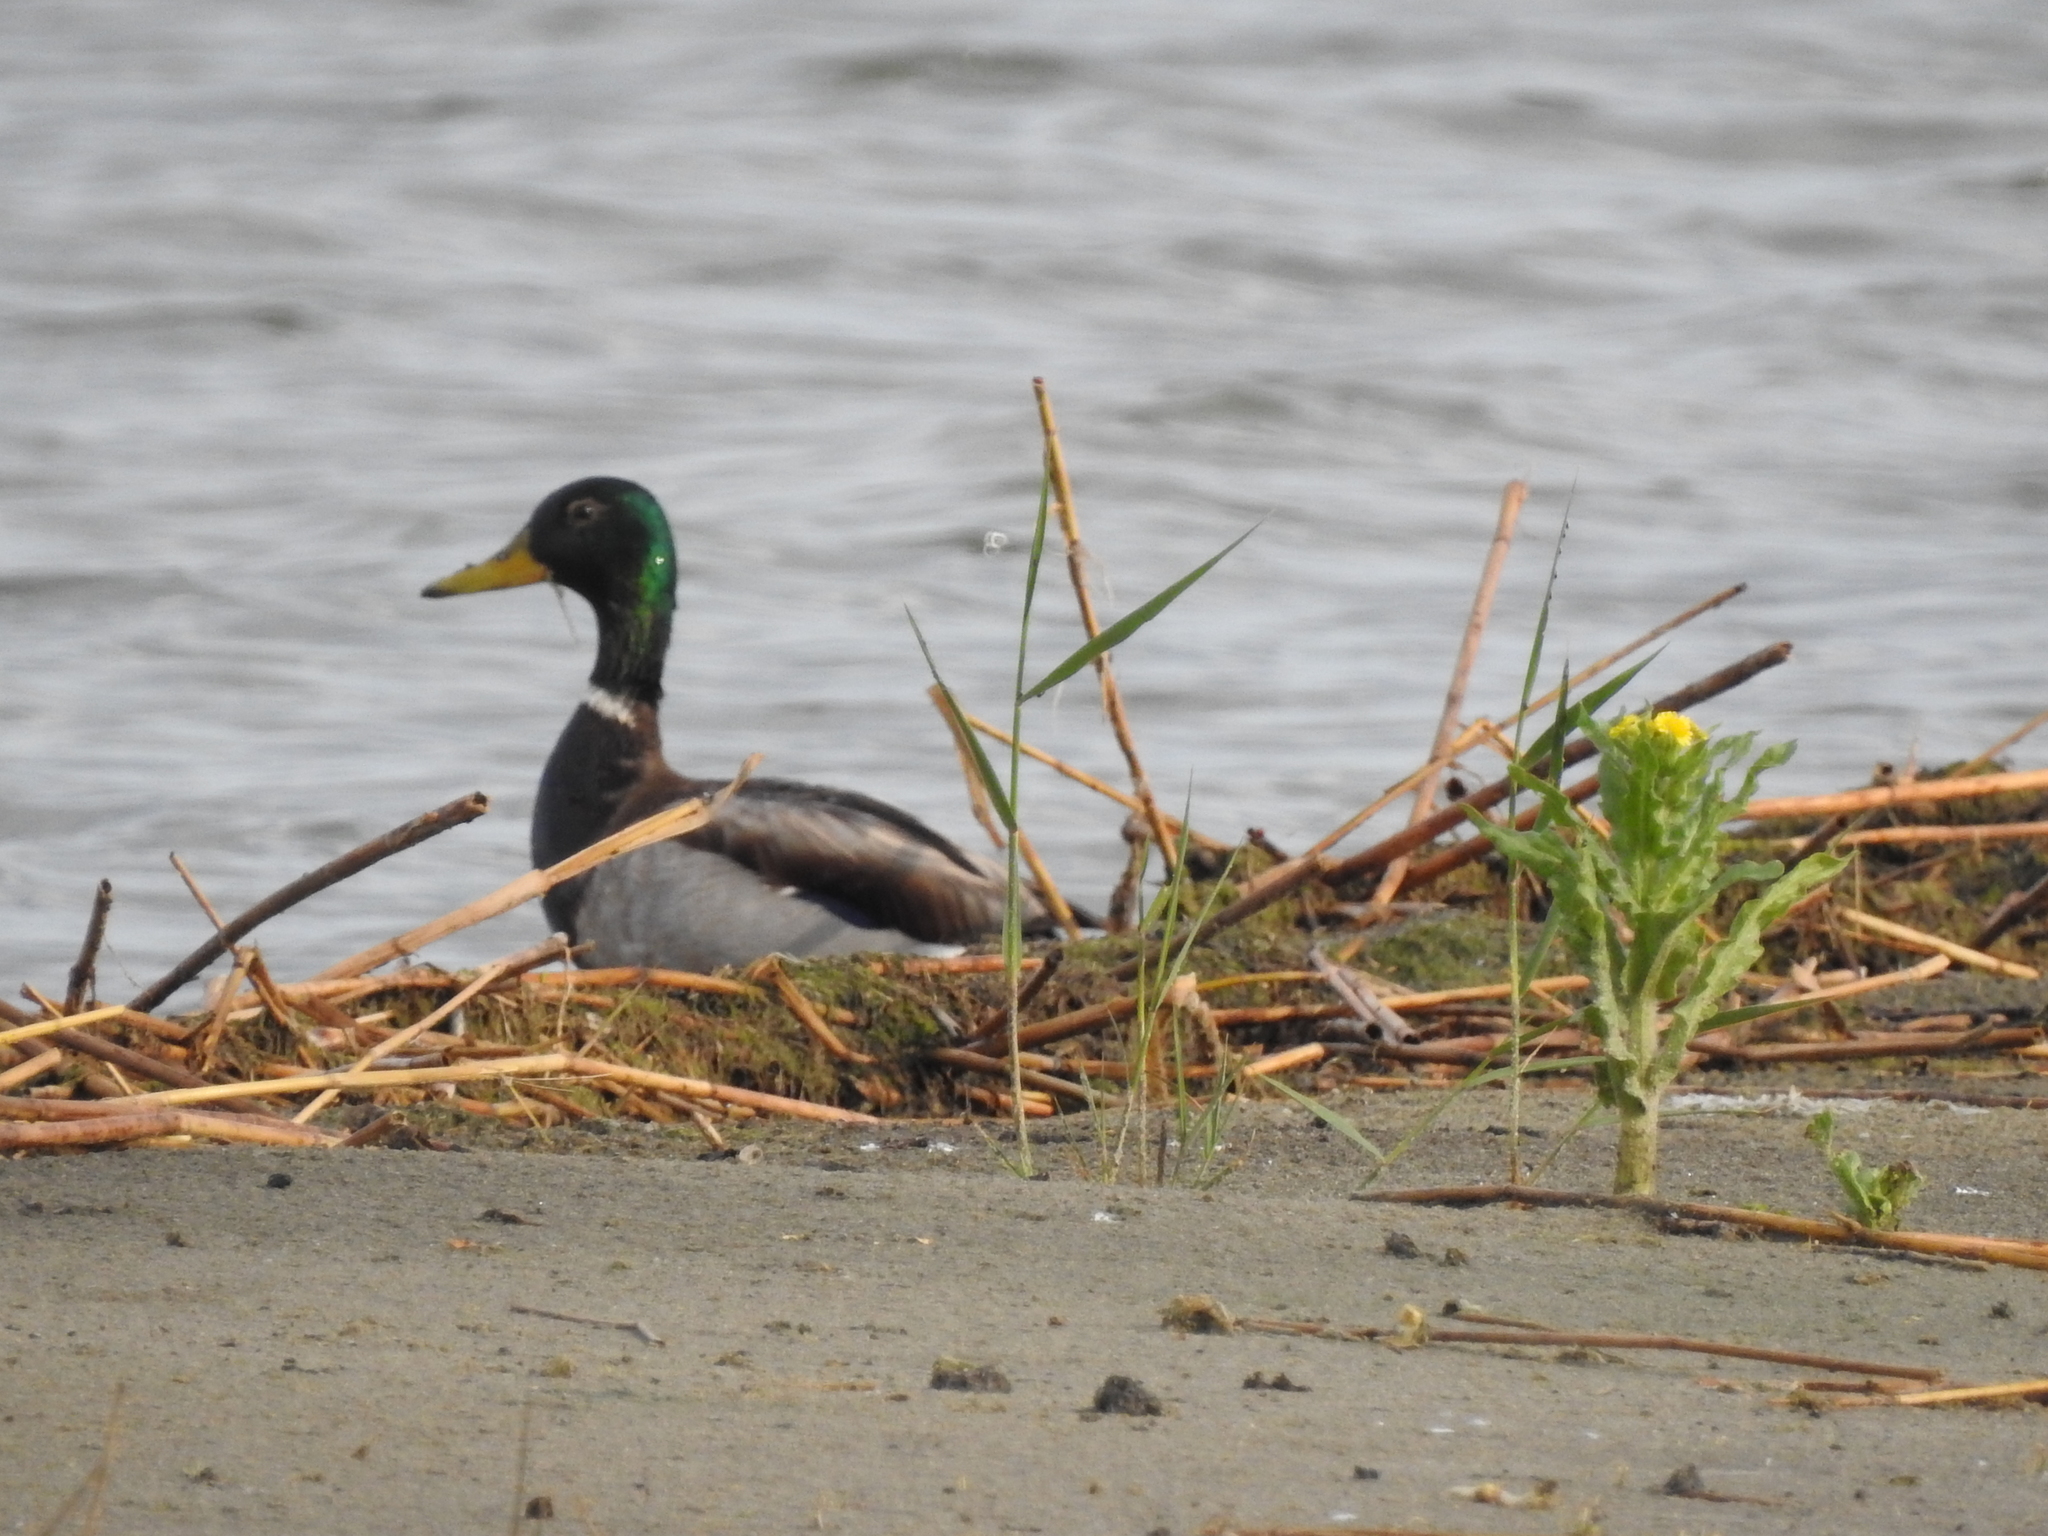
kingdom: Animalia
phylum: Chordata
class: Aves
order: Anseriformes
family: Anatidae
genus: Anas
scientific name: Anas platyrhynchos
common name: Mallard
